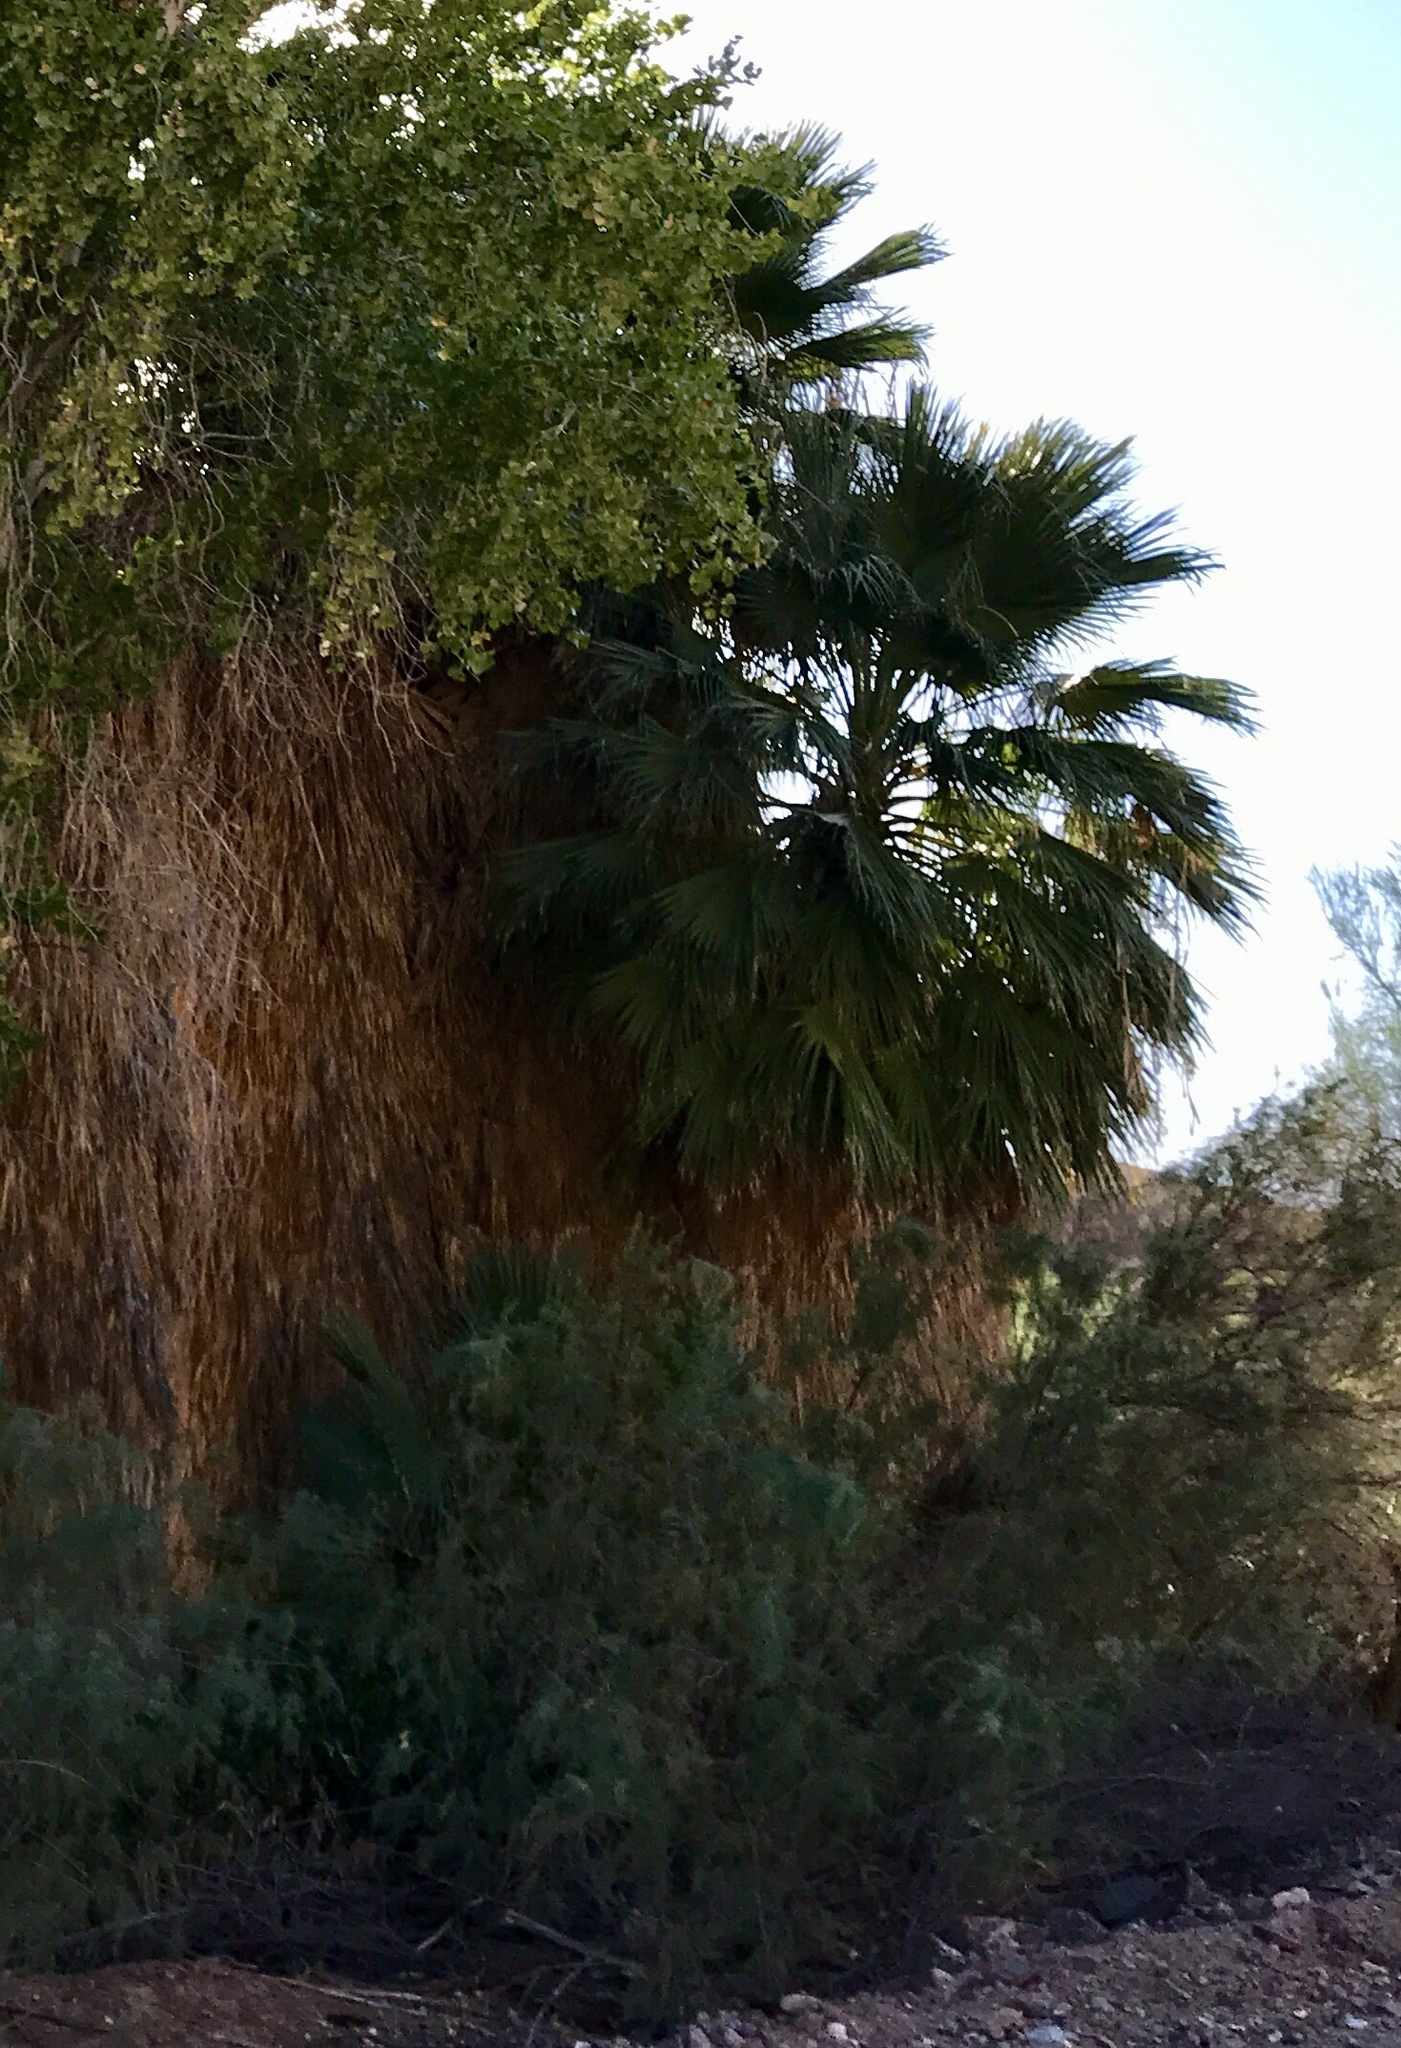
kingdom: Plantae
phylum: Tracheophyta
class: Liliopsida
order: Arecales
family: Arecaceae
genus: Washingtonia
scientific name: Washingtonia filifera
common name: California fan palm
